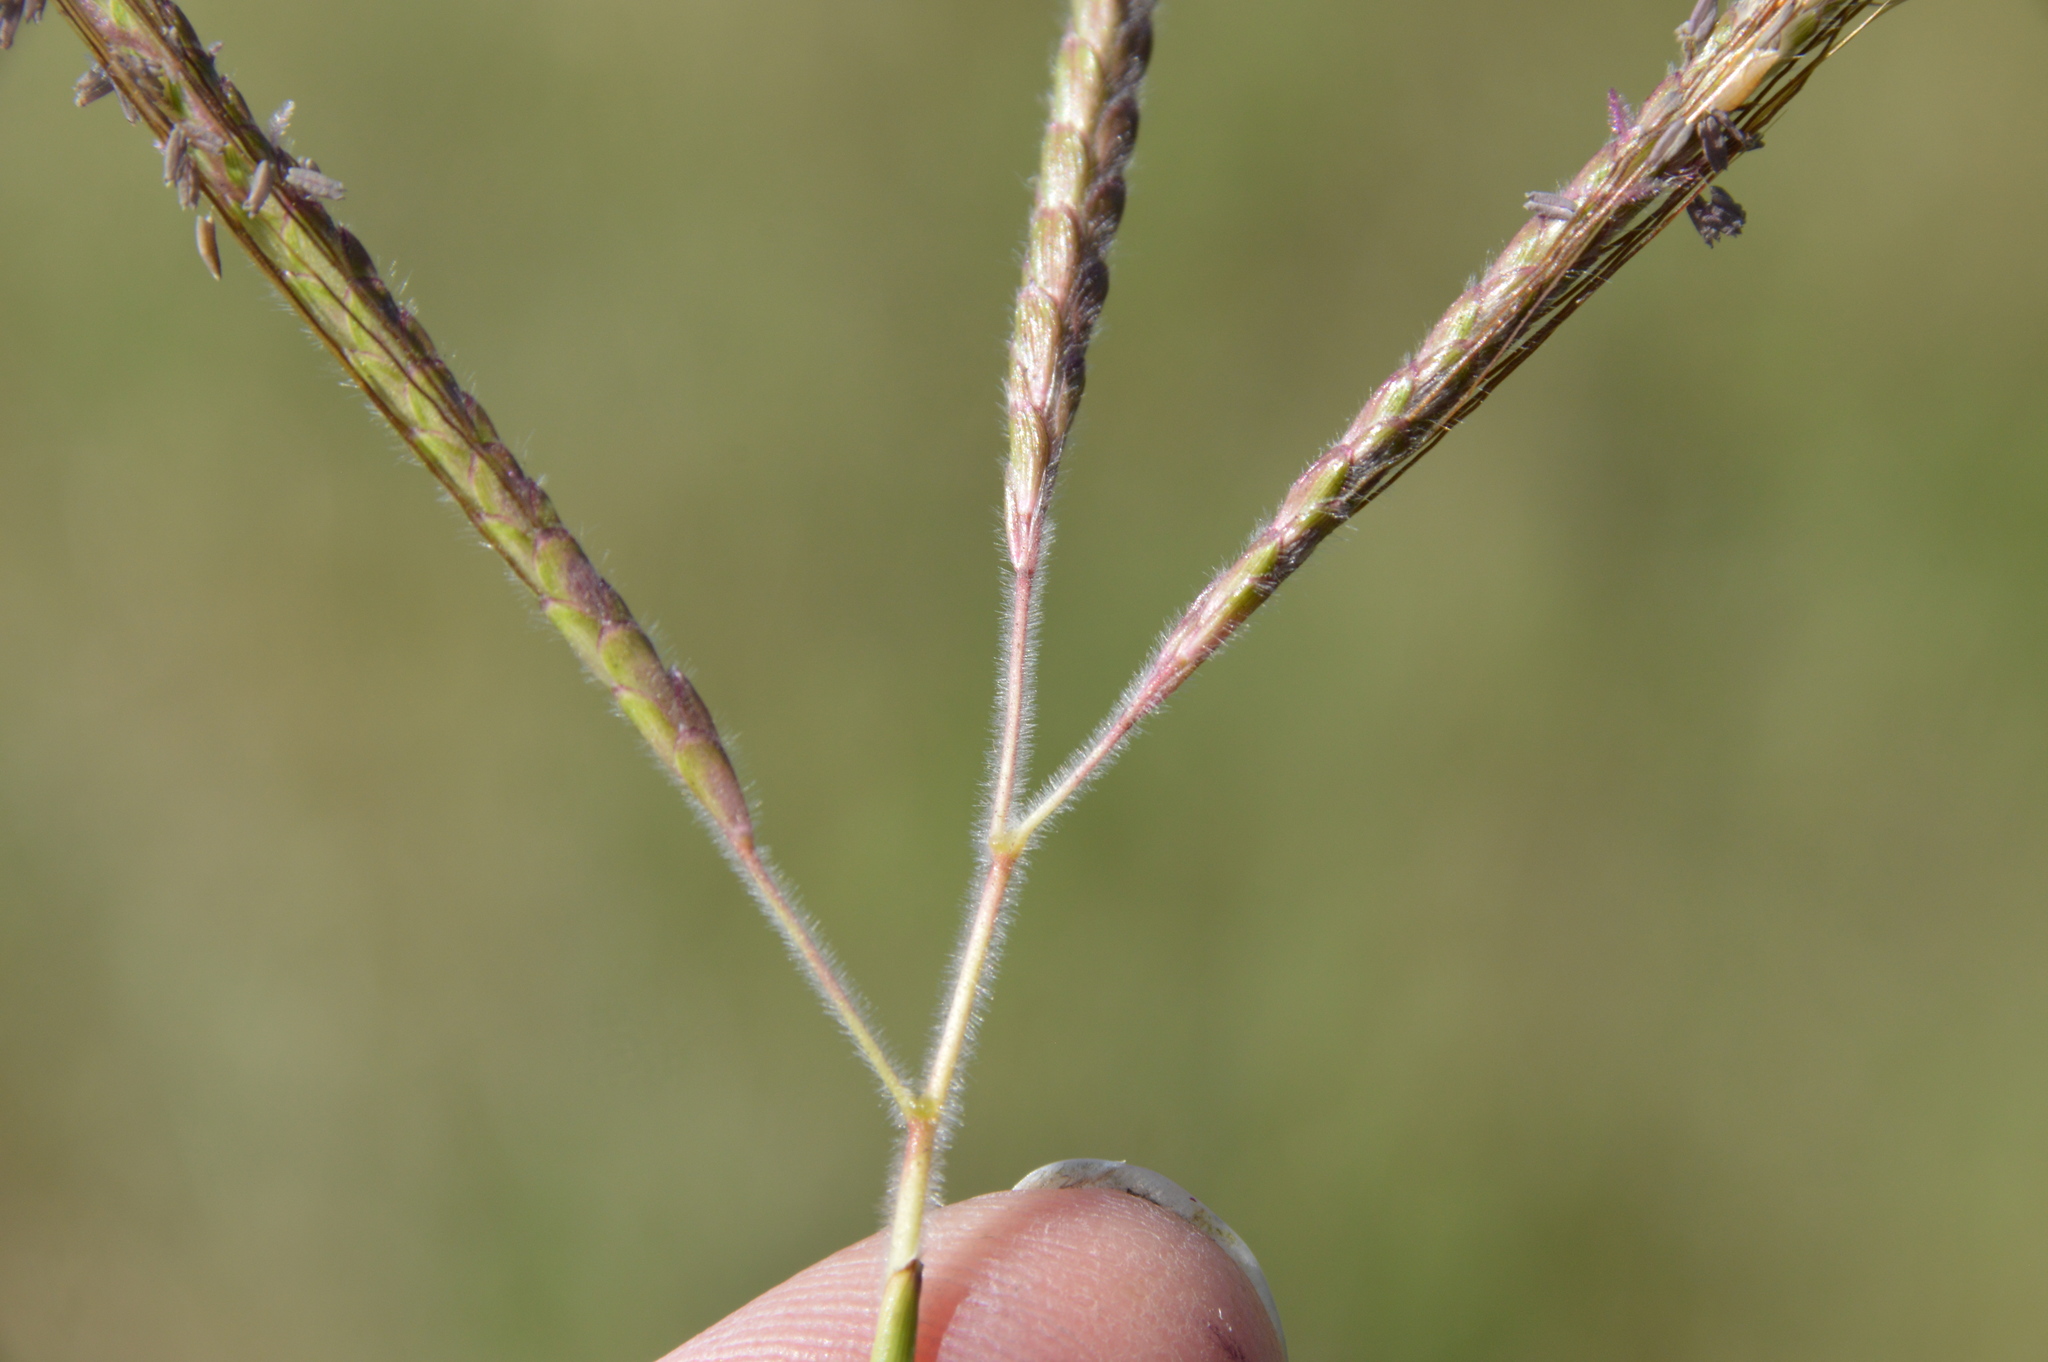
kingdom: Plantae
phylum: Tracheophyta
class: Liliopsida
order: Poales
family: Poaceae
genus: Dichanthium
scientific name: Dichanthium aristatum
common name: Angleton bluestem
